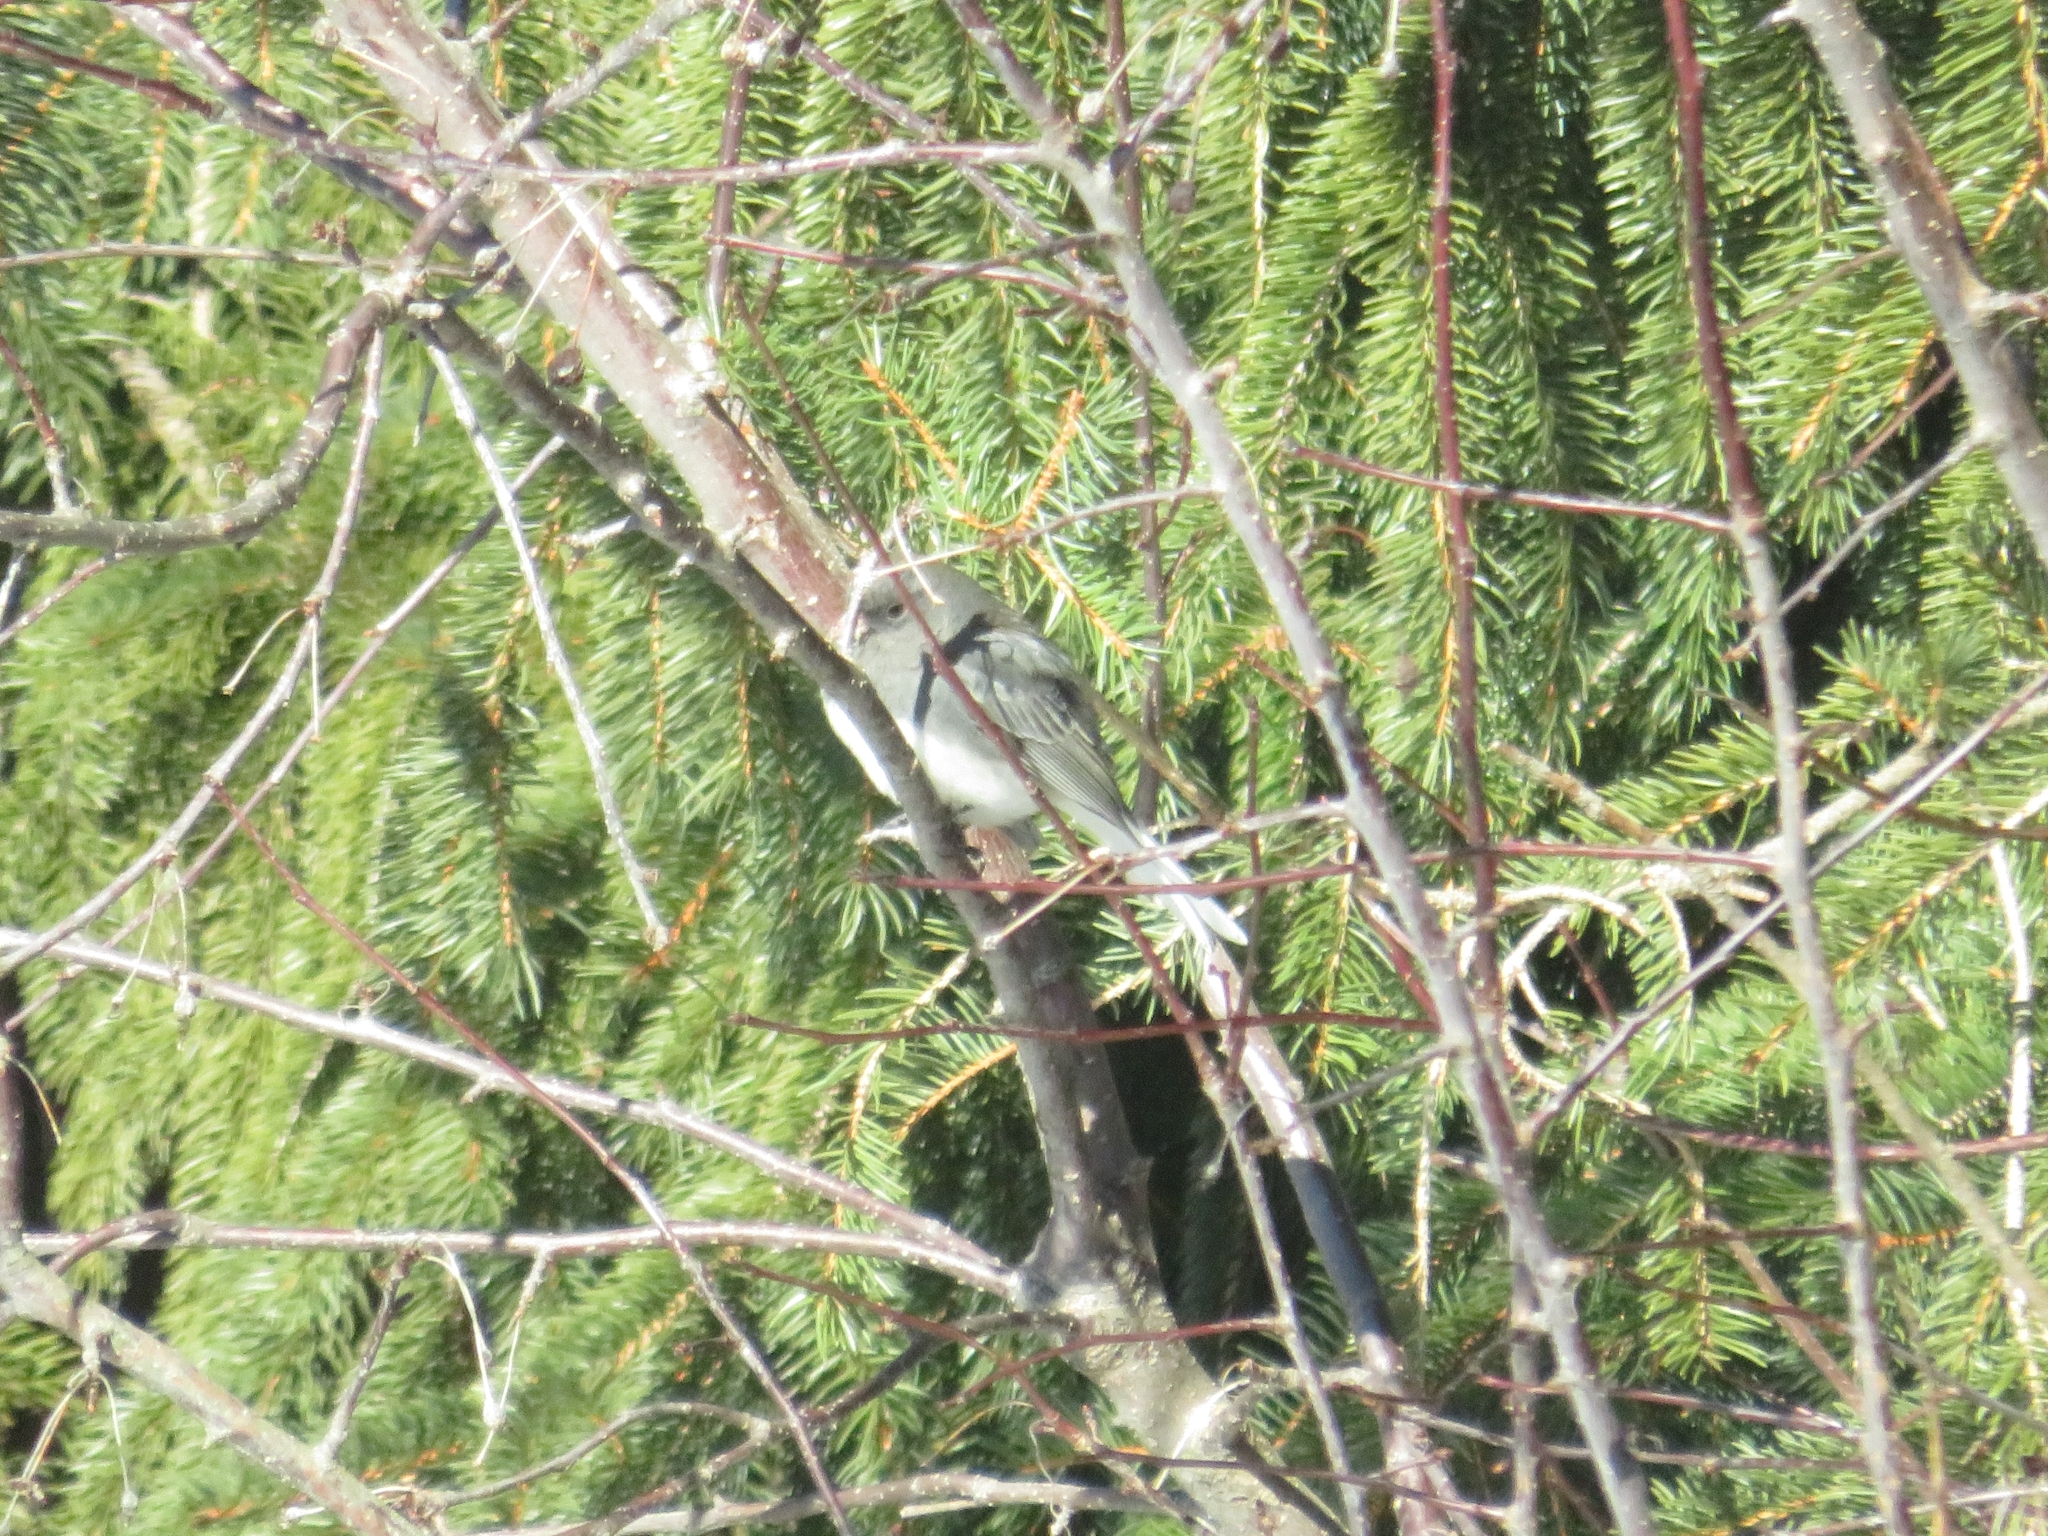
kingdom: Animalia
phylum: Chordata
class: Aves
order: Passeriformes
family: Passerellidae
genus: Junco
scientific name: Junco hyemalis
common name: Dark-eyed junco
